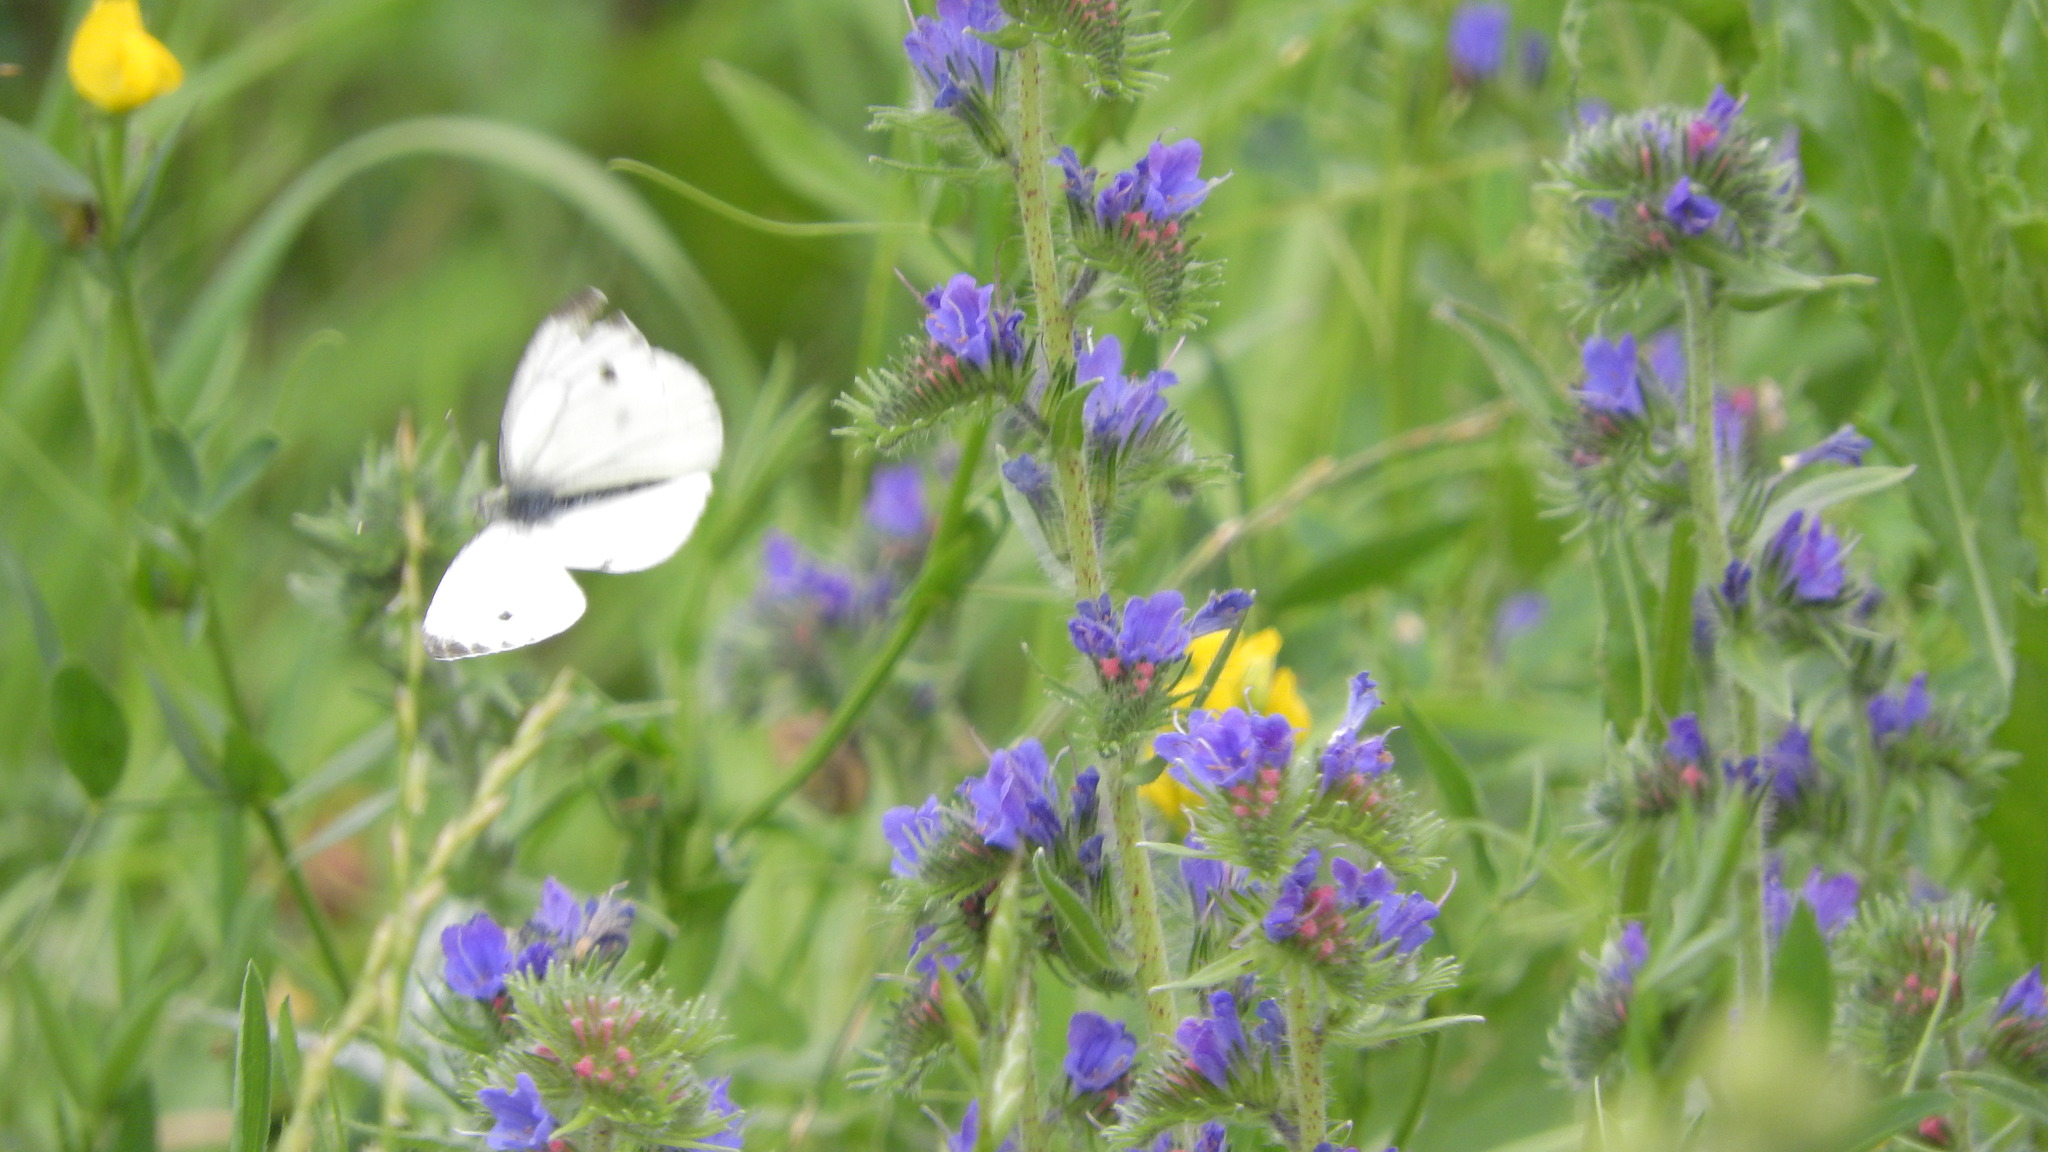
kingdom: Animalia
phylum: Arthropoda
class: Insecta
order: Lepidoptera
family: Pieridae
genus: Pieris
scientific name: Pieris napi
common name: Green-veined white
